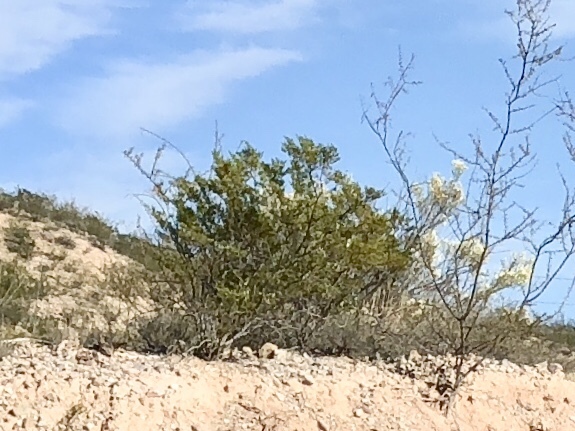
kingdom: Plantae
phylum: Tracheophyta
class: Magnoliopsida
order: Zygophyllales
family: Zygophyllaceae
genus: Larrea
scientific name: Larrea tridentata
